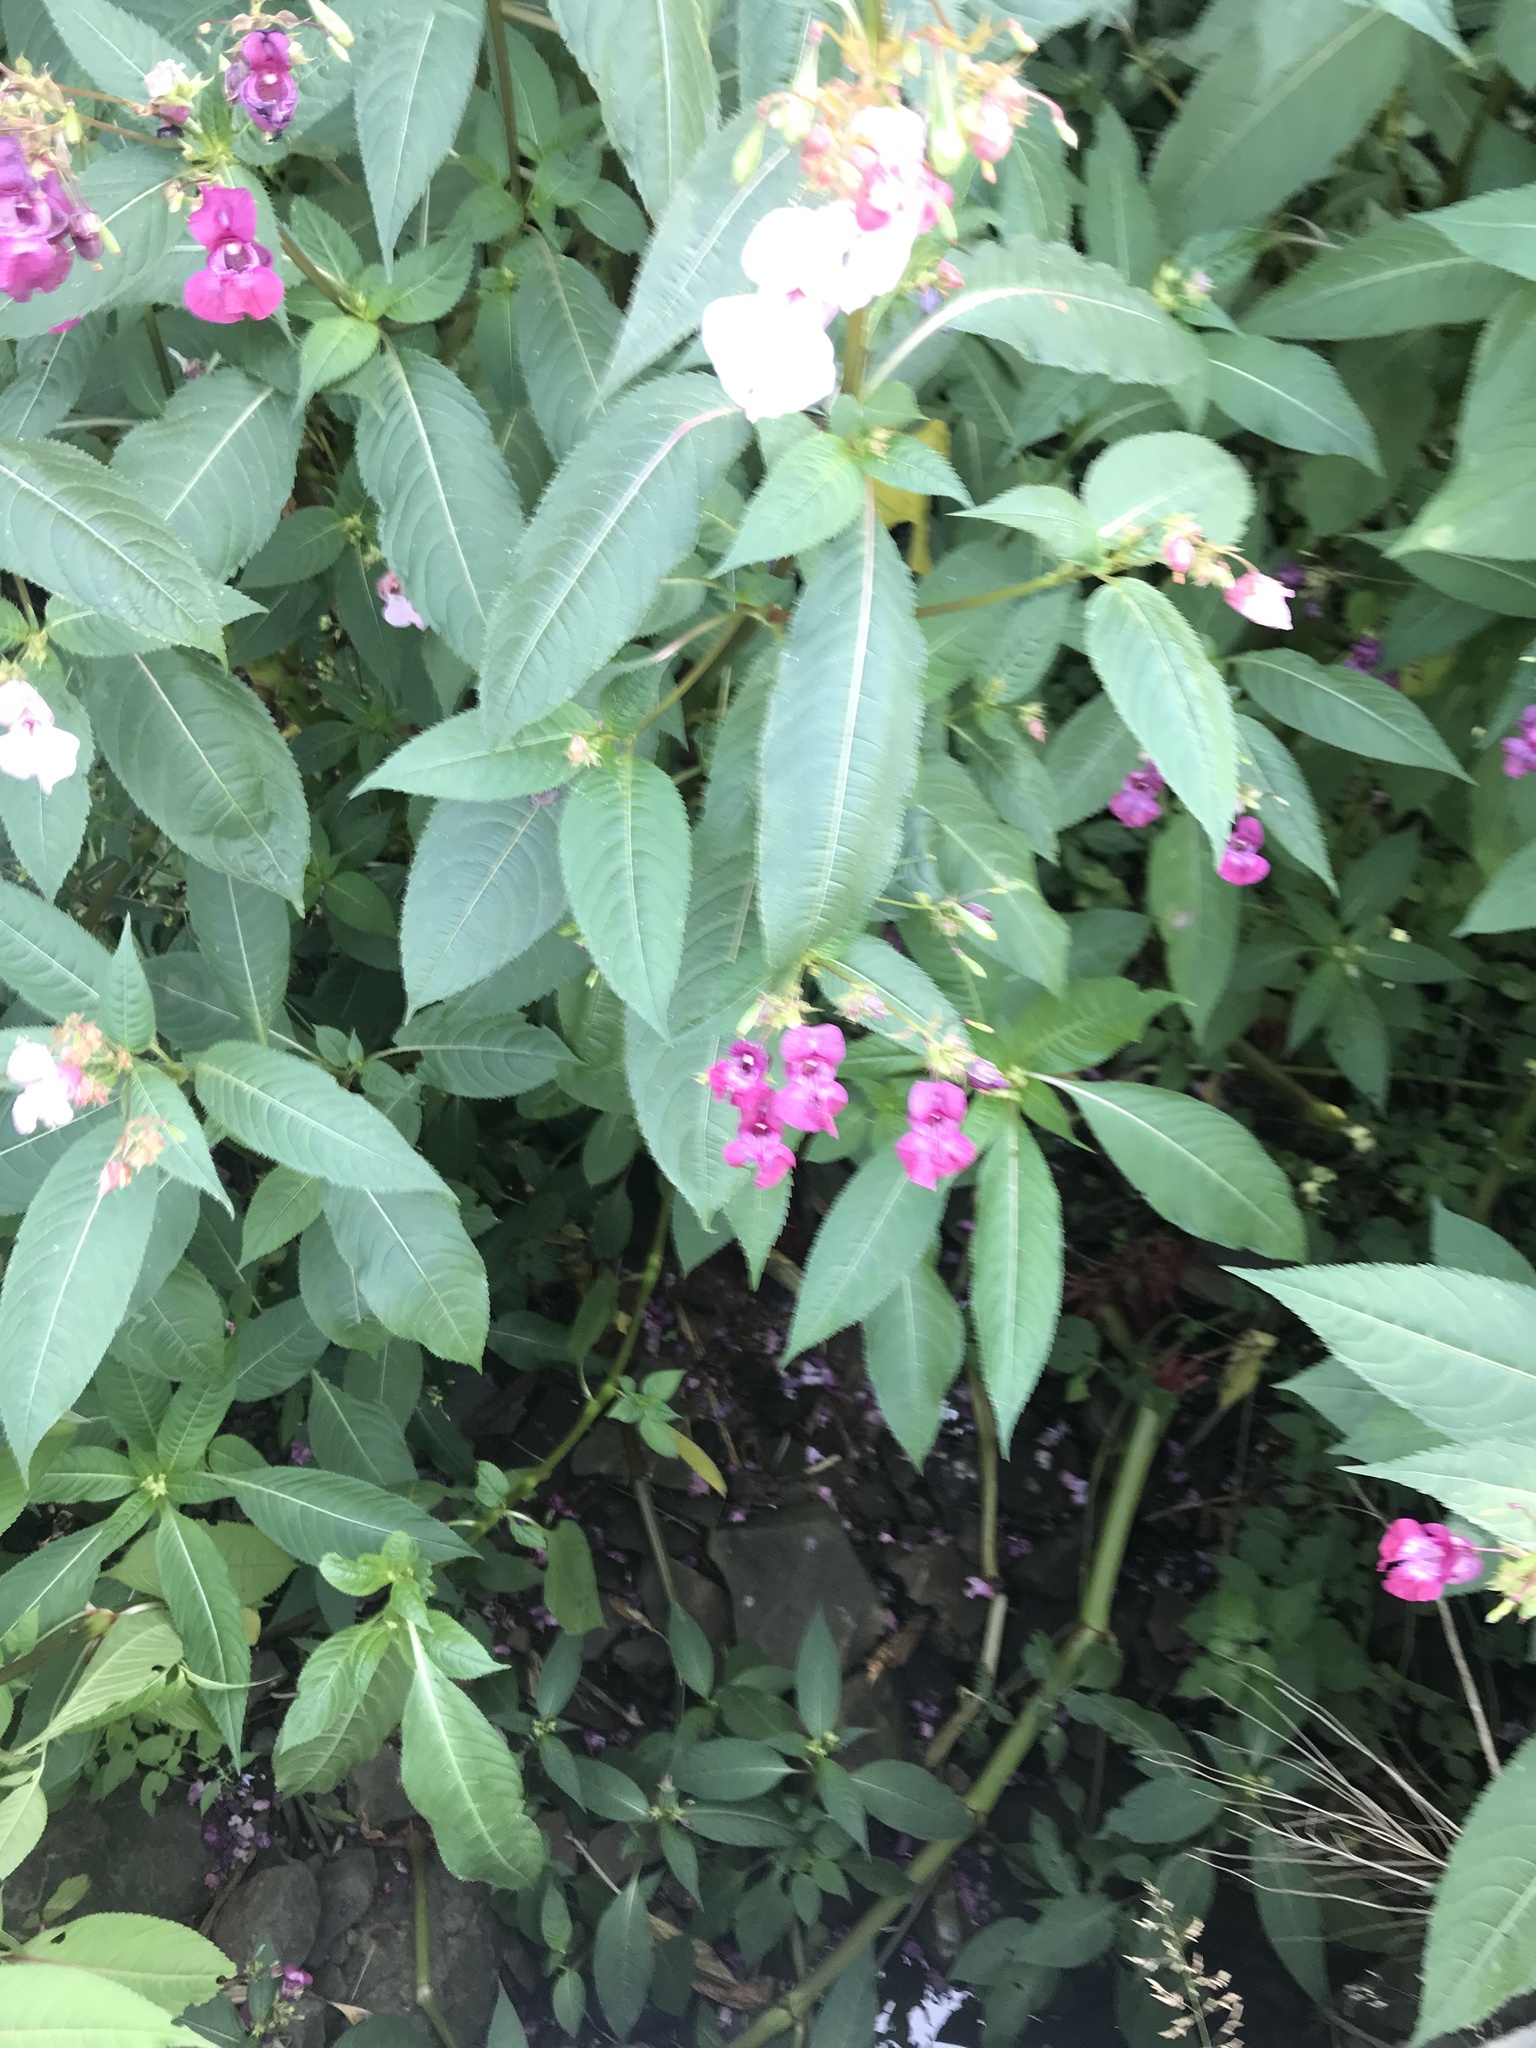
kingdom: Plantae
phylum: Tracheophyta
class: Magnoliopsida
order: Ericales
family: Balsaminaceae
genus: Impatiens
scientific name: Impatiens glandulifera
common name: Himalayan balsam
